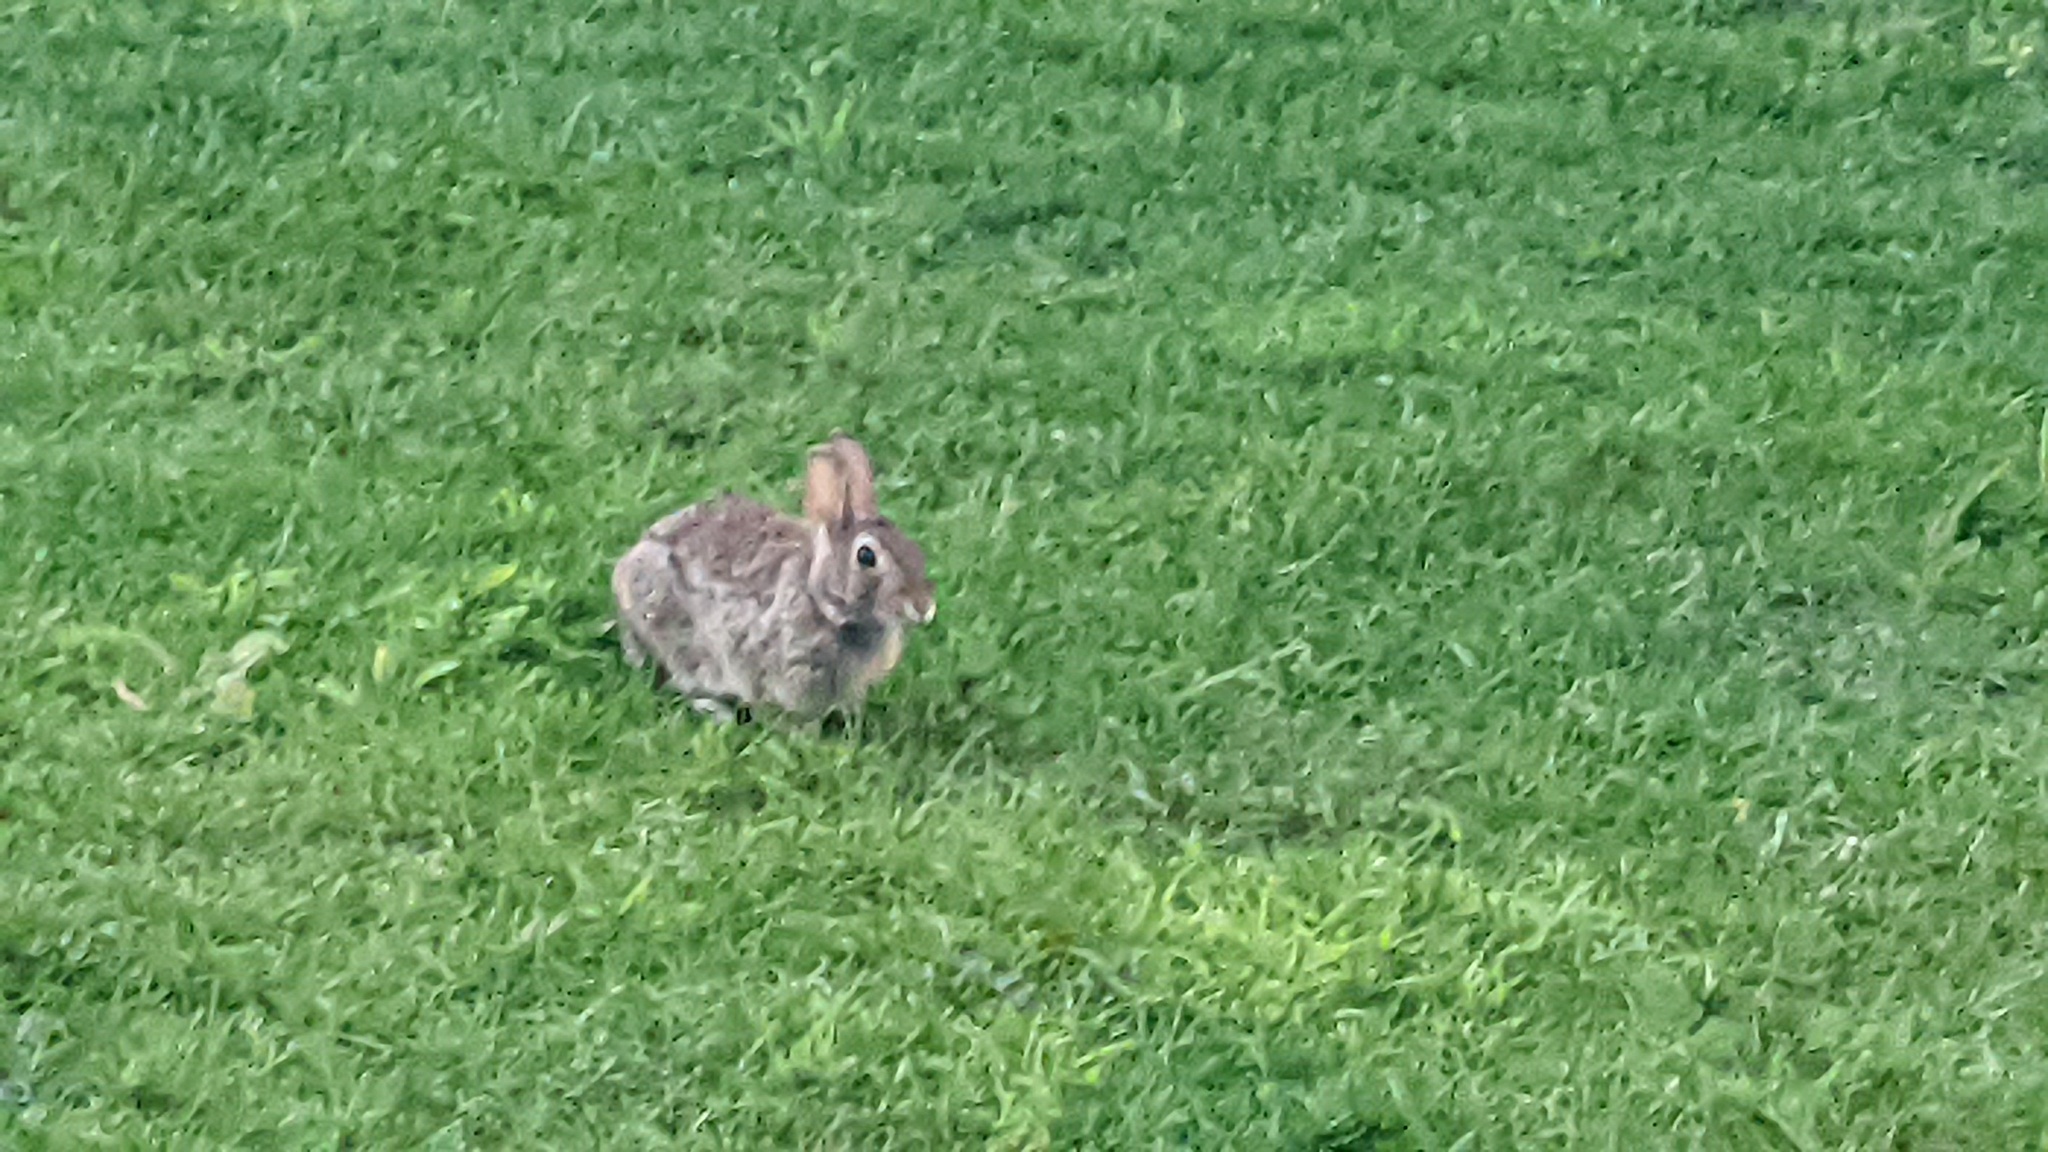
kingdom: Animalia
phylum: Chordata
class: Mammalia
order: Lagomorpha
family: Leporidae
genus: Sylvilagus
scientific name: Sylvilagus floridanus
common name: Eastern cottontail
